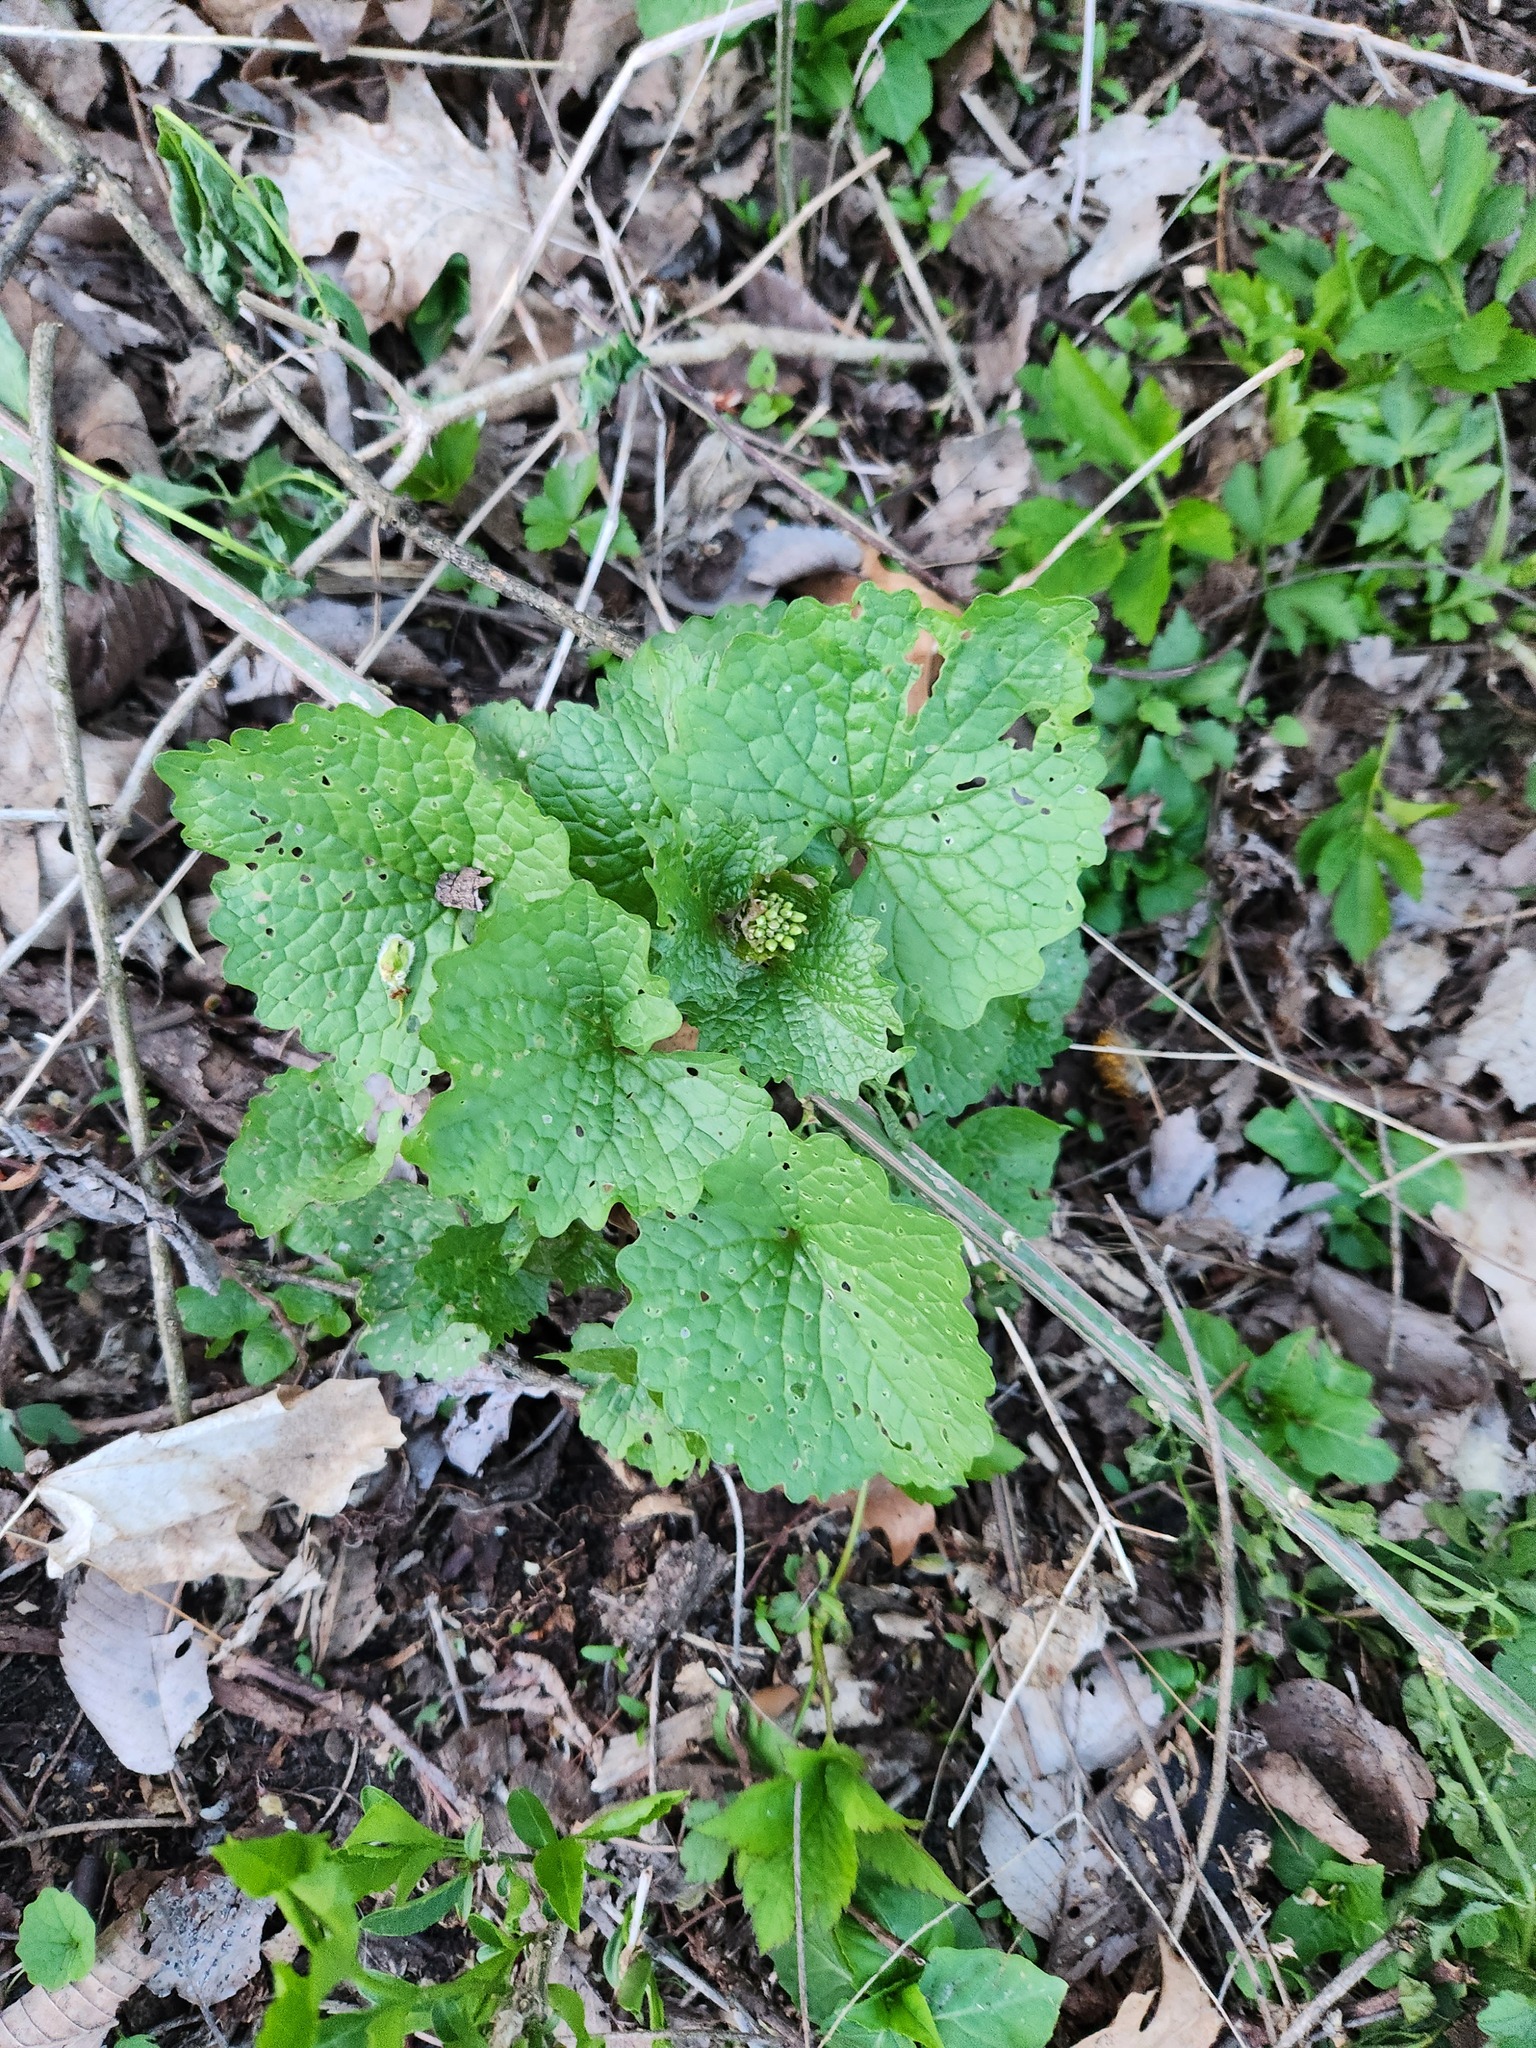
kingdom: Plantae
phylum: Tracheophyta
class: Magnoliopsida
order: Brassicales
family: Brassicaceae
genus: Alliaria
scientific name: Alliaria petiolata
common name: Garlic mustard
